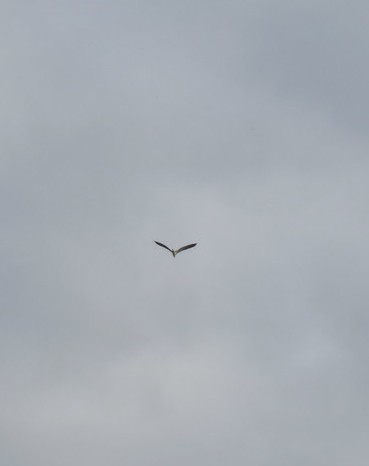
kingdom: Animalia
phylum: Chordata
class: Aves
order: Pelecaniformes
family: Ardeidae
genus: Ardea
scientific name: Ardea cinerea
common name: Grey heron
